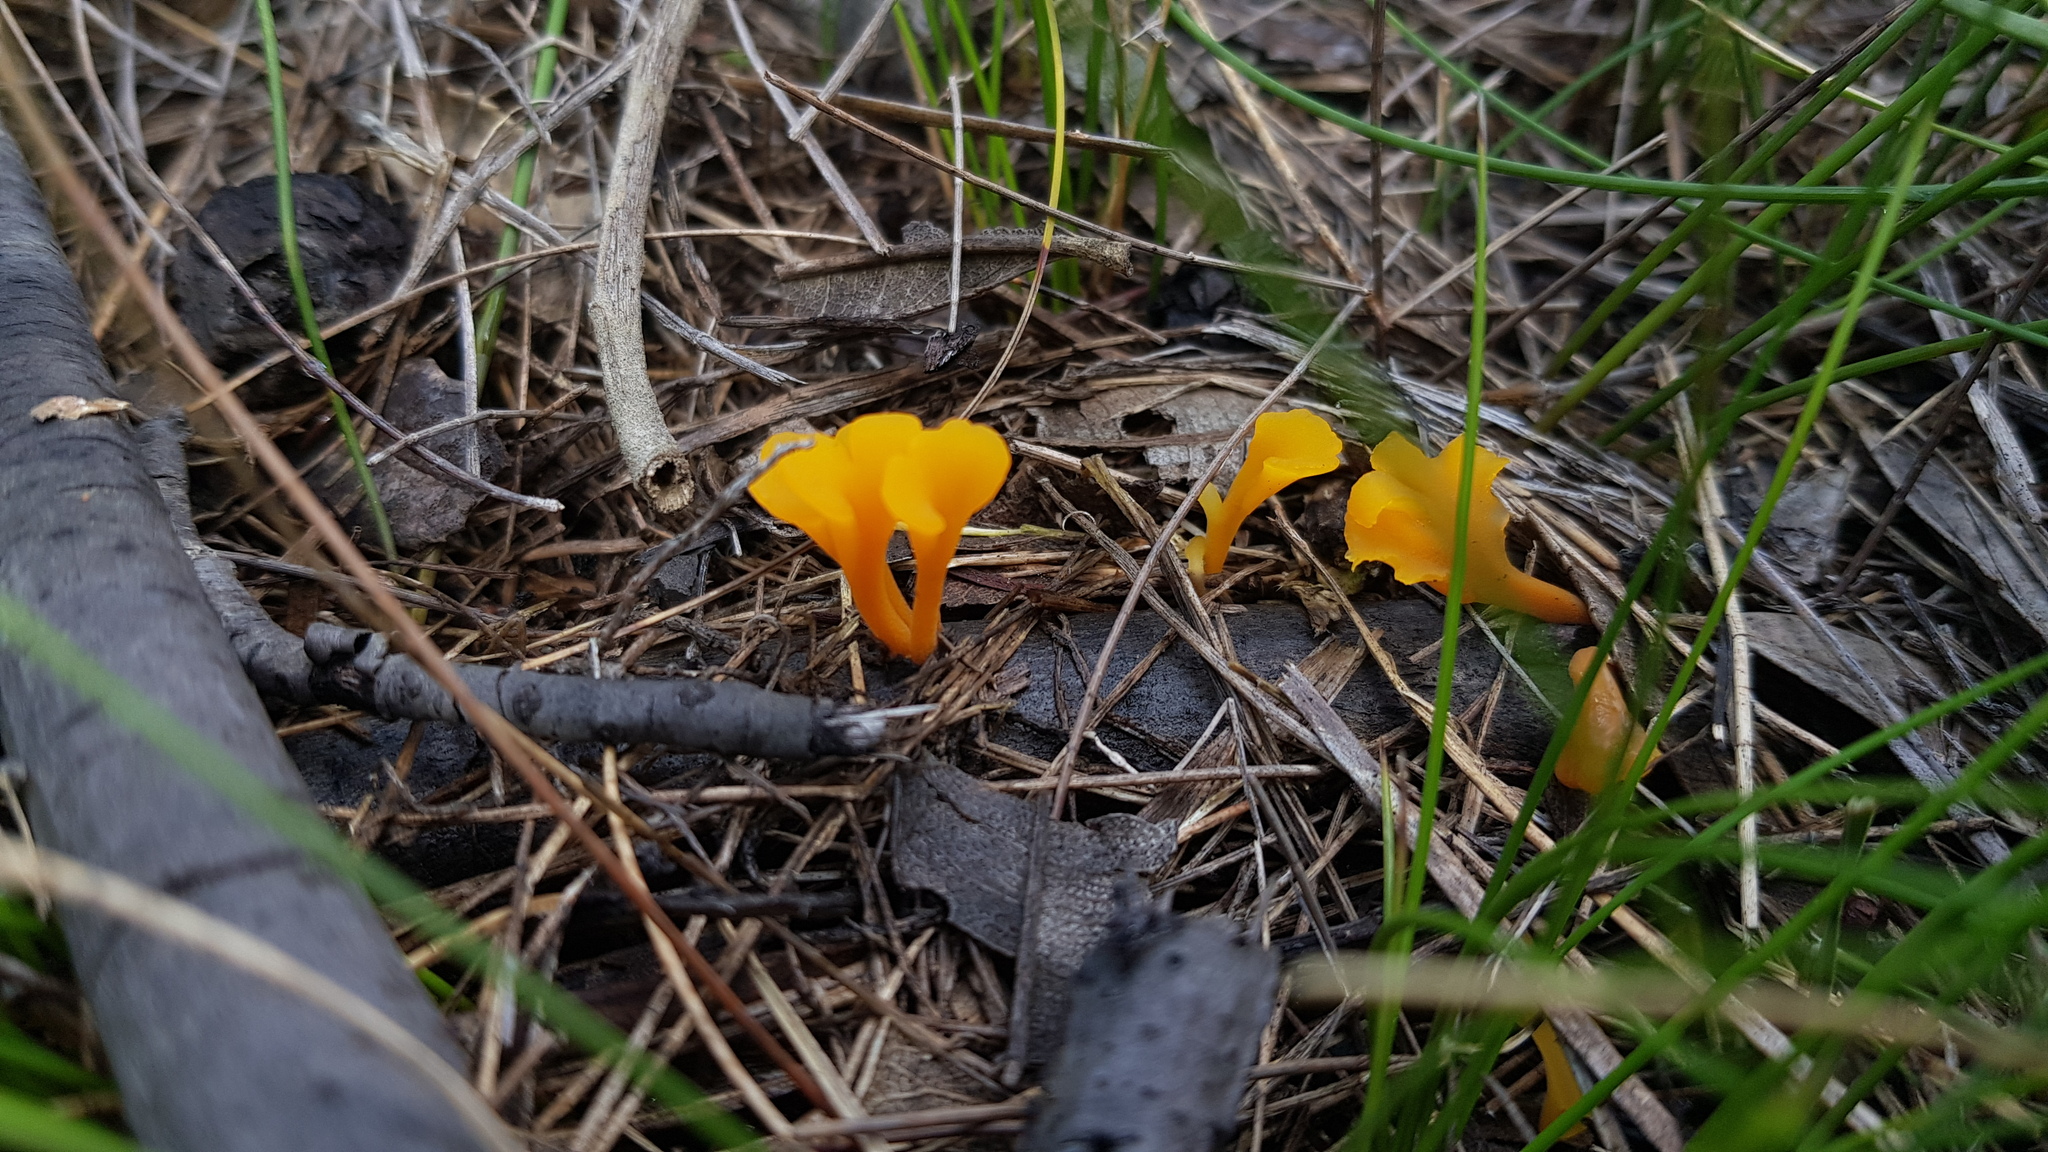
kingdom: Fungi
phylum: Basidiomycota
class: Dacrymycetes
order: Dacrymycetales
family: Dacrymycetaceae
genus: Dacrymyces
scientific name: Dacrymyces spathularius
